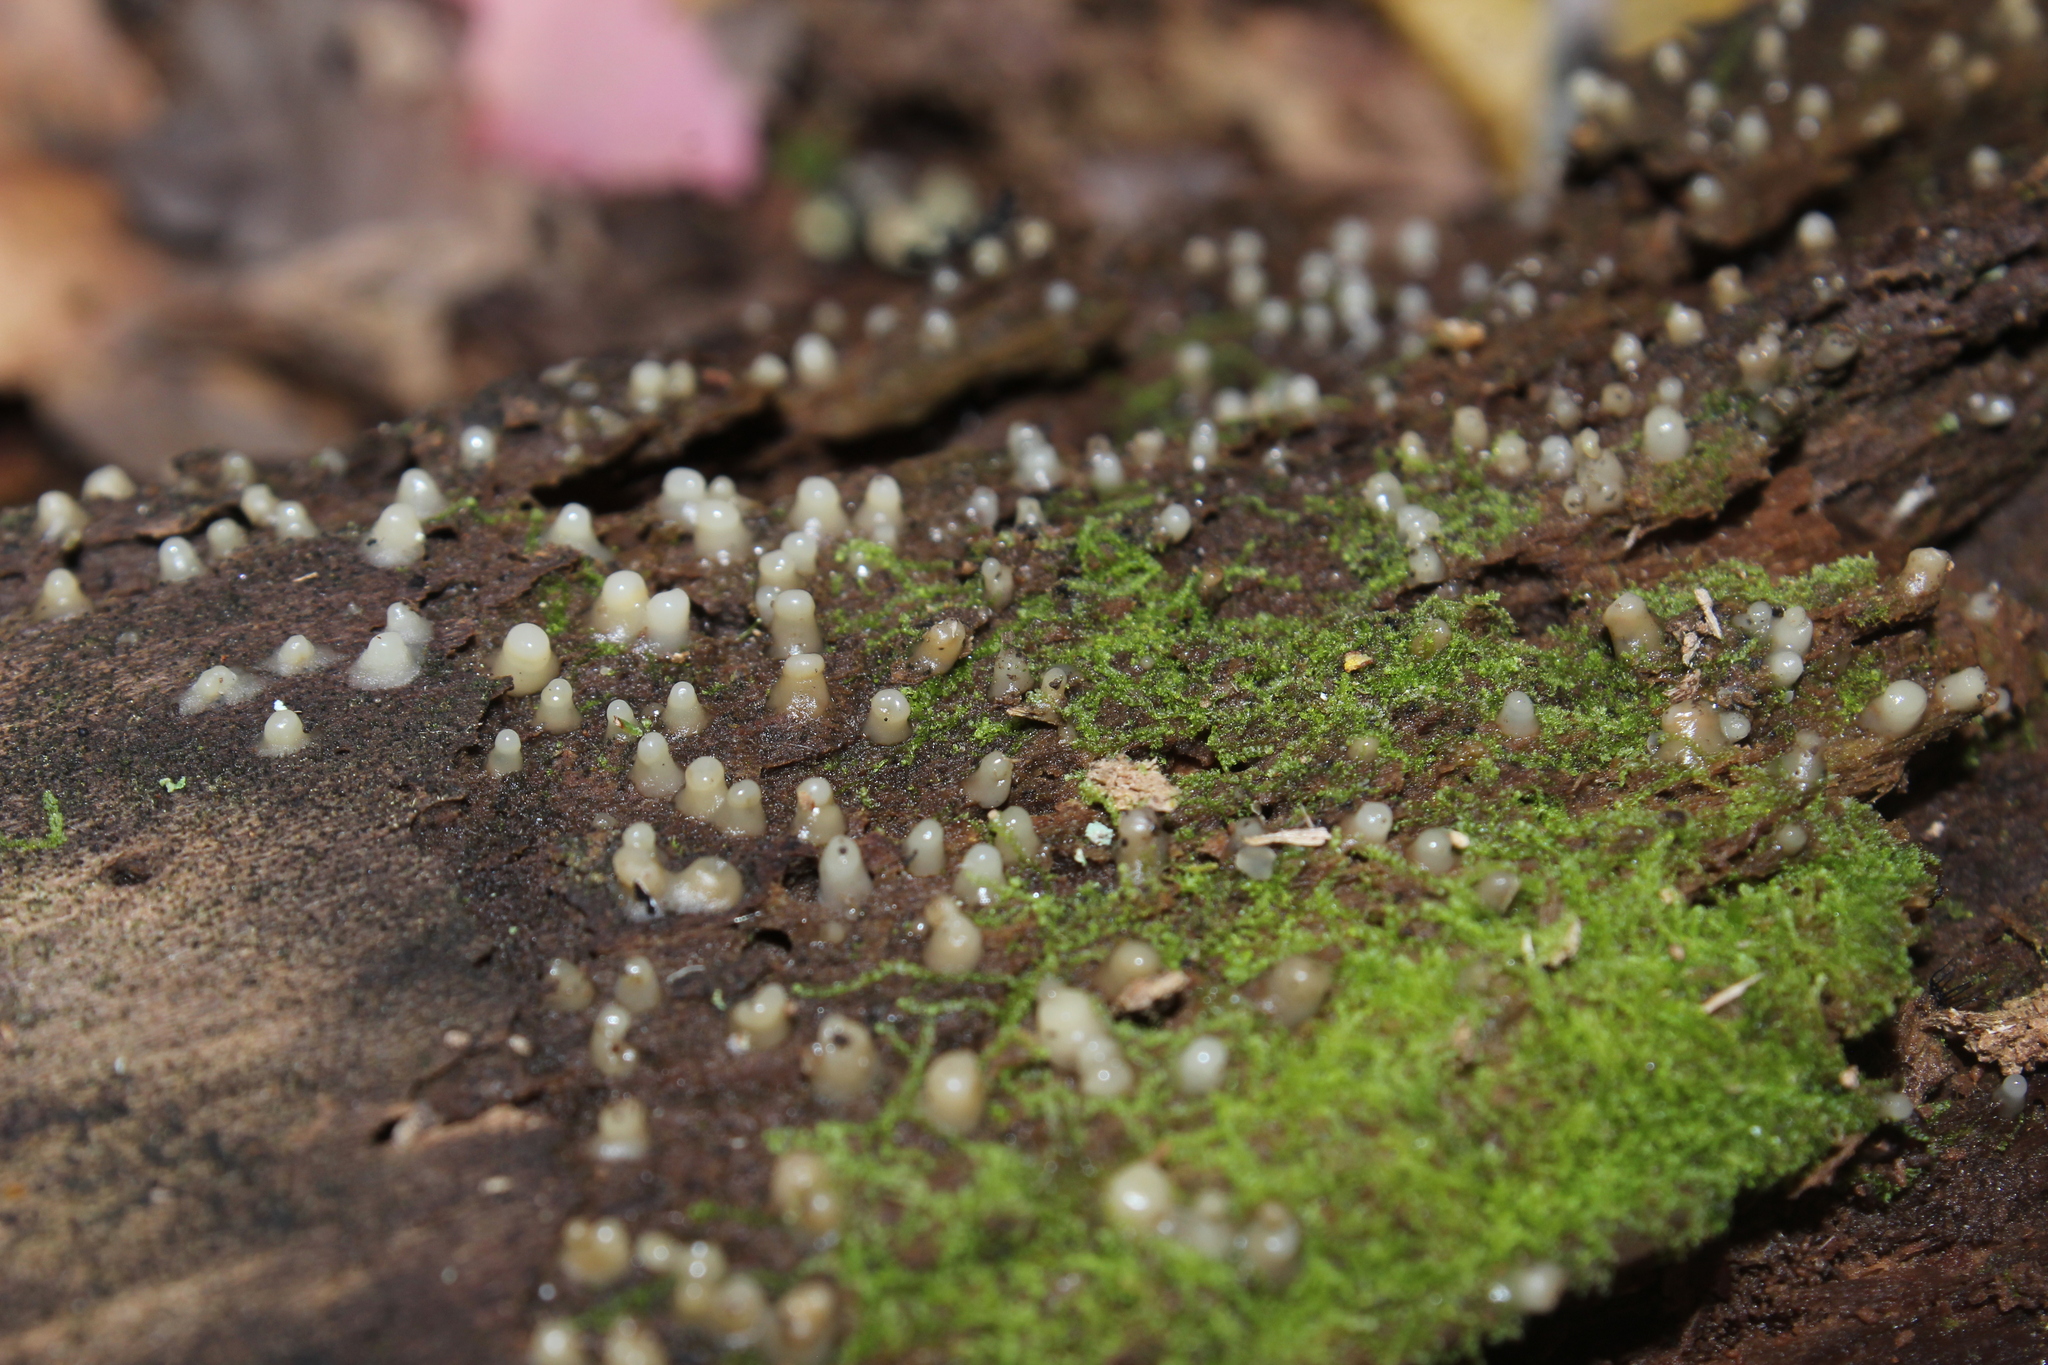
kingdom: Fungi
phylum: Basidiomycota
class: Atractiellomycetes
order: Atractiellales
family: Phleogenaceae
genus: Helicogloea
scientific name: Helicogloea compressa
